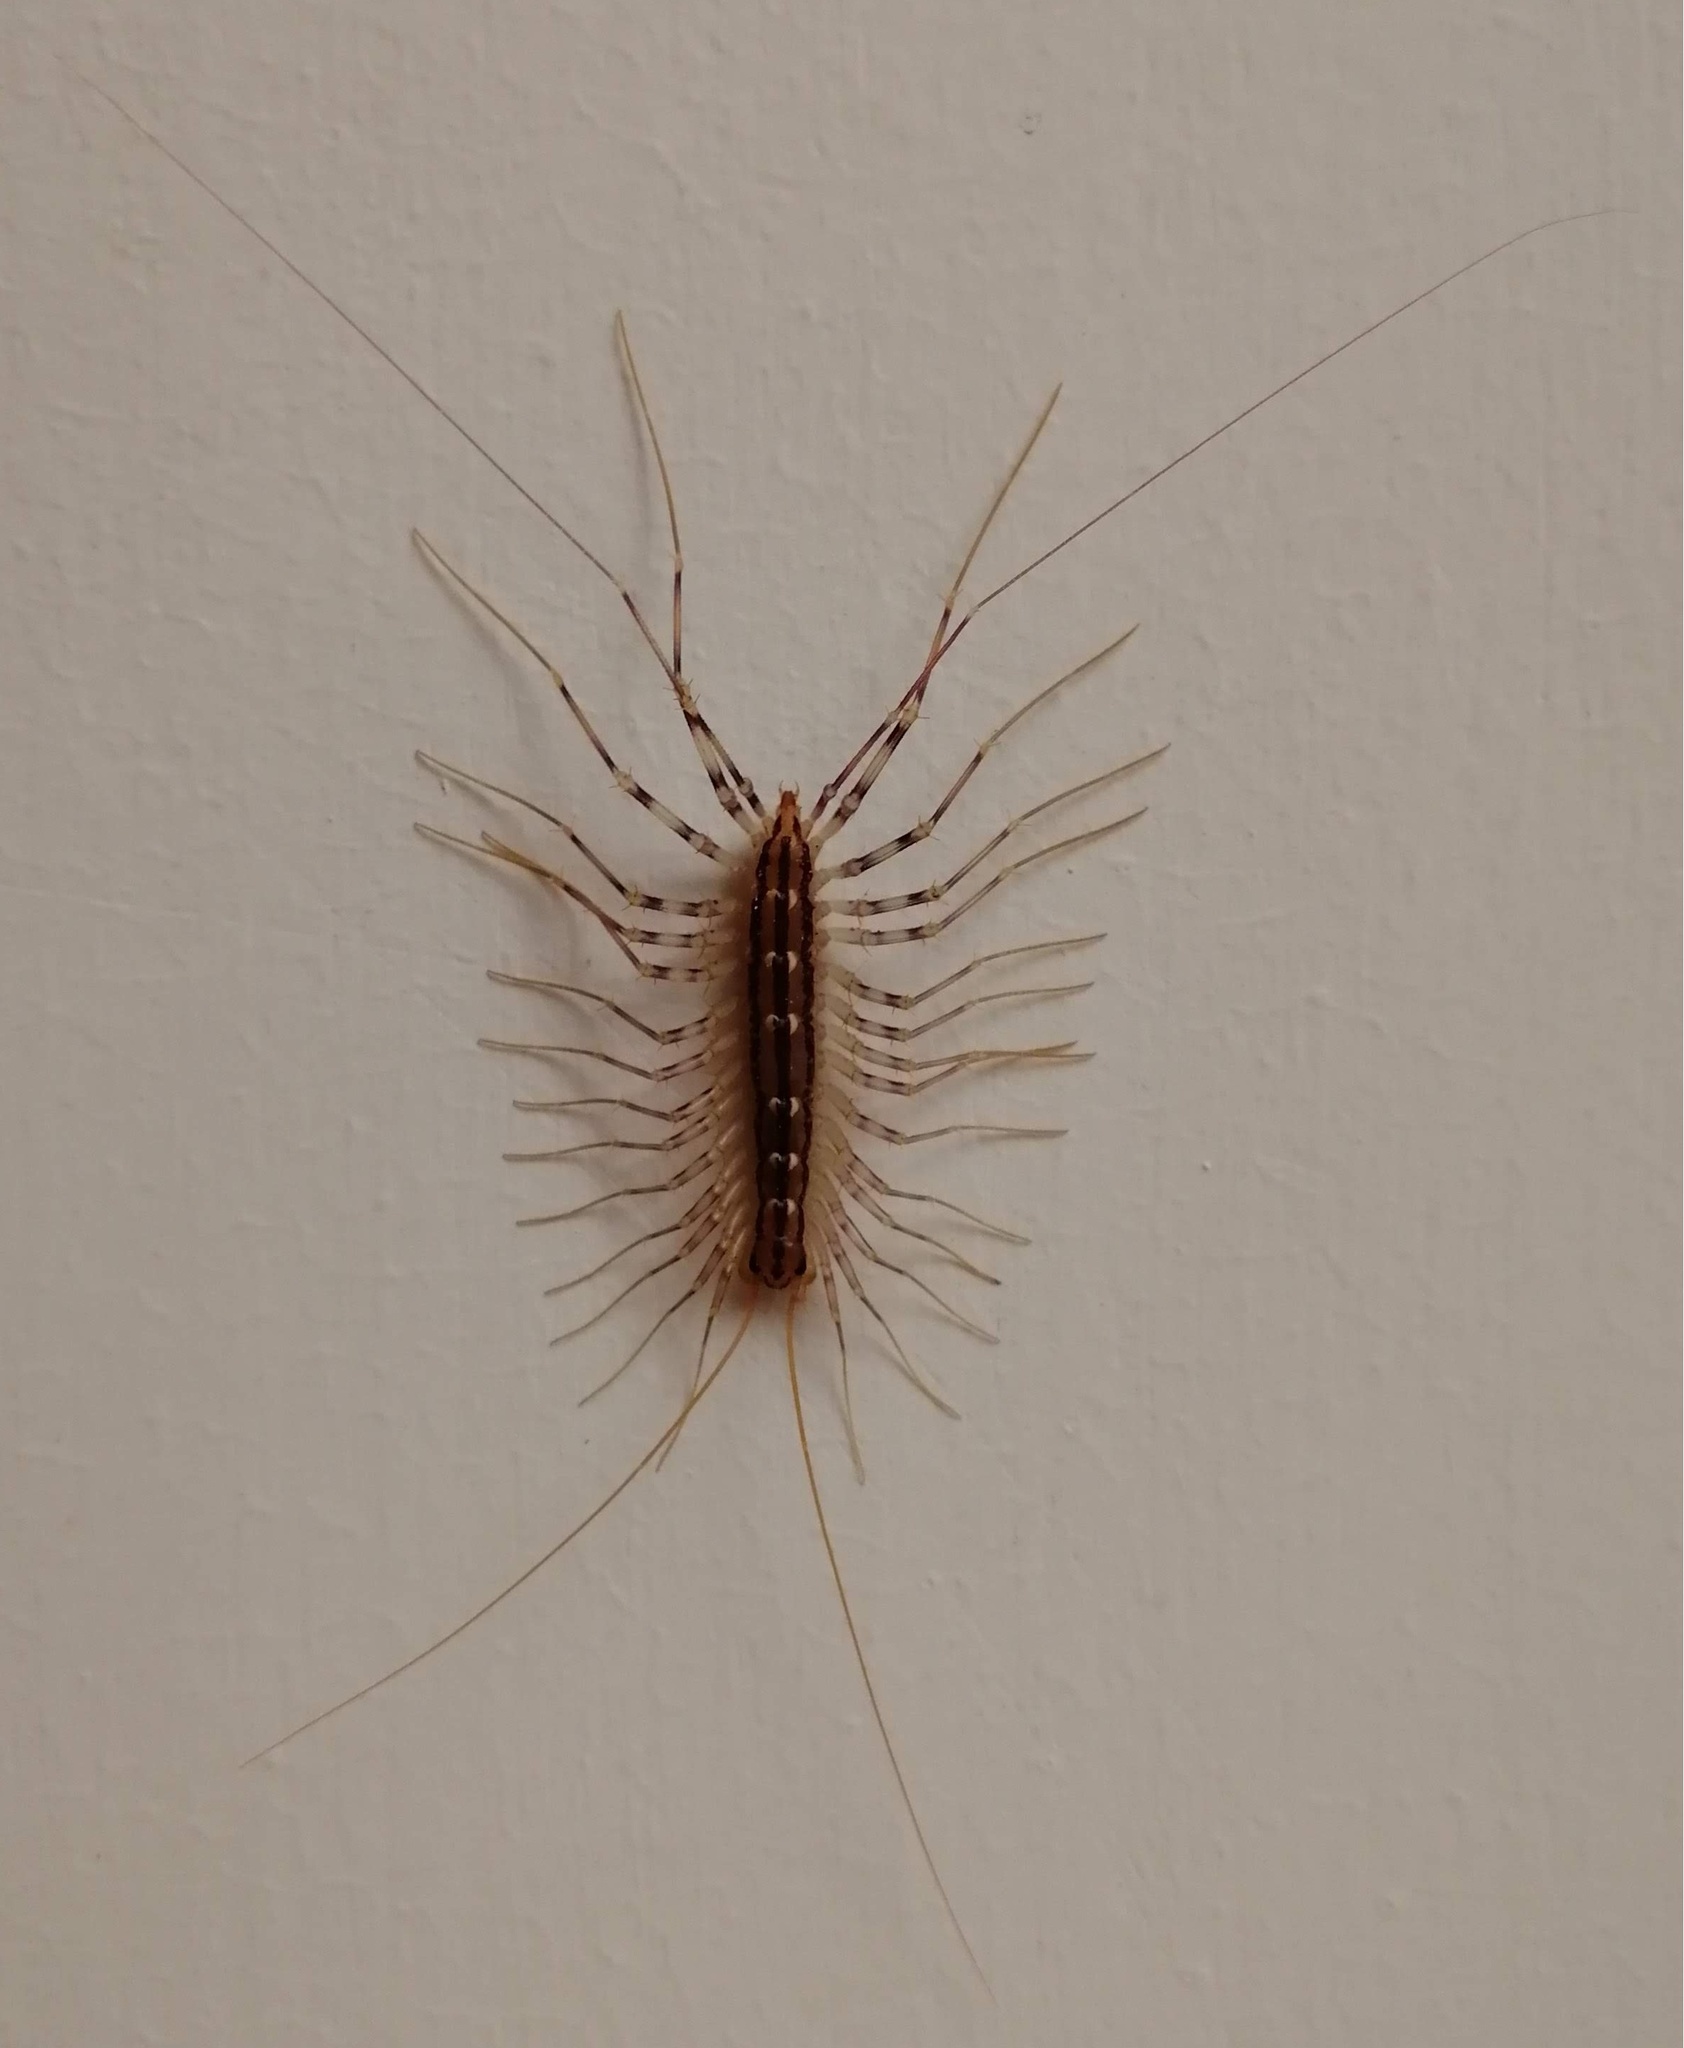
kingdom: Animalia
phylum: Arthropoda
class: Chilopoda
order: Scutigeromorpha
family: Scutigeridae
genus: Scutigera
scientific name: Scutigera coleoptrata
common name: House centipede
